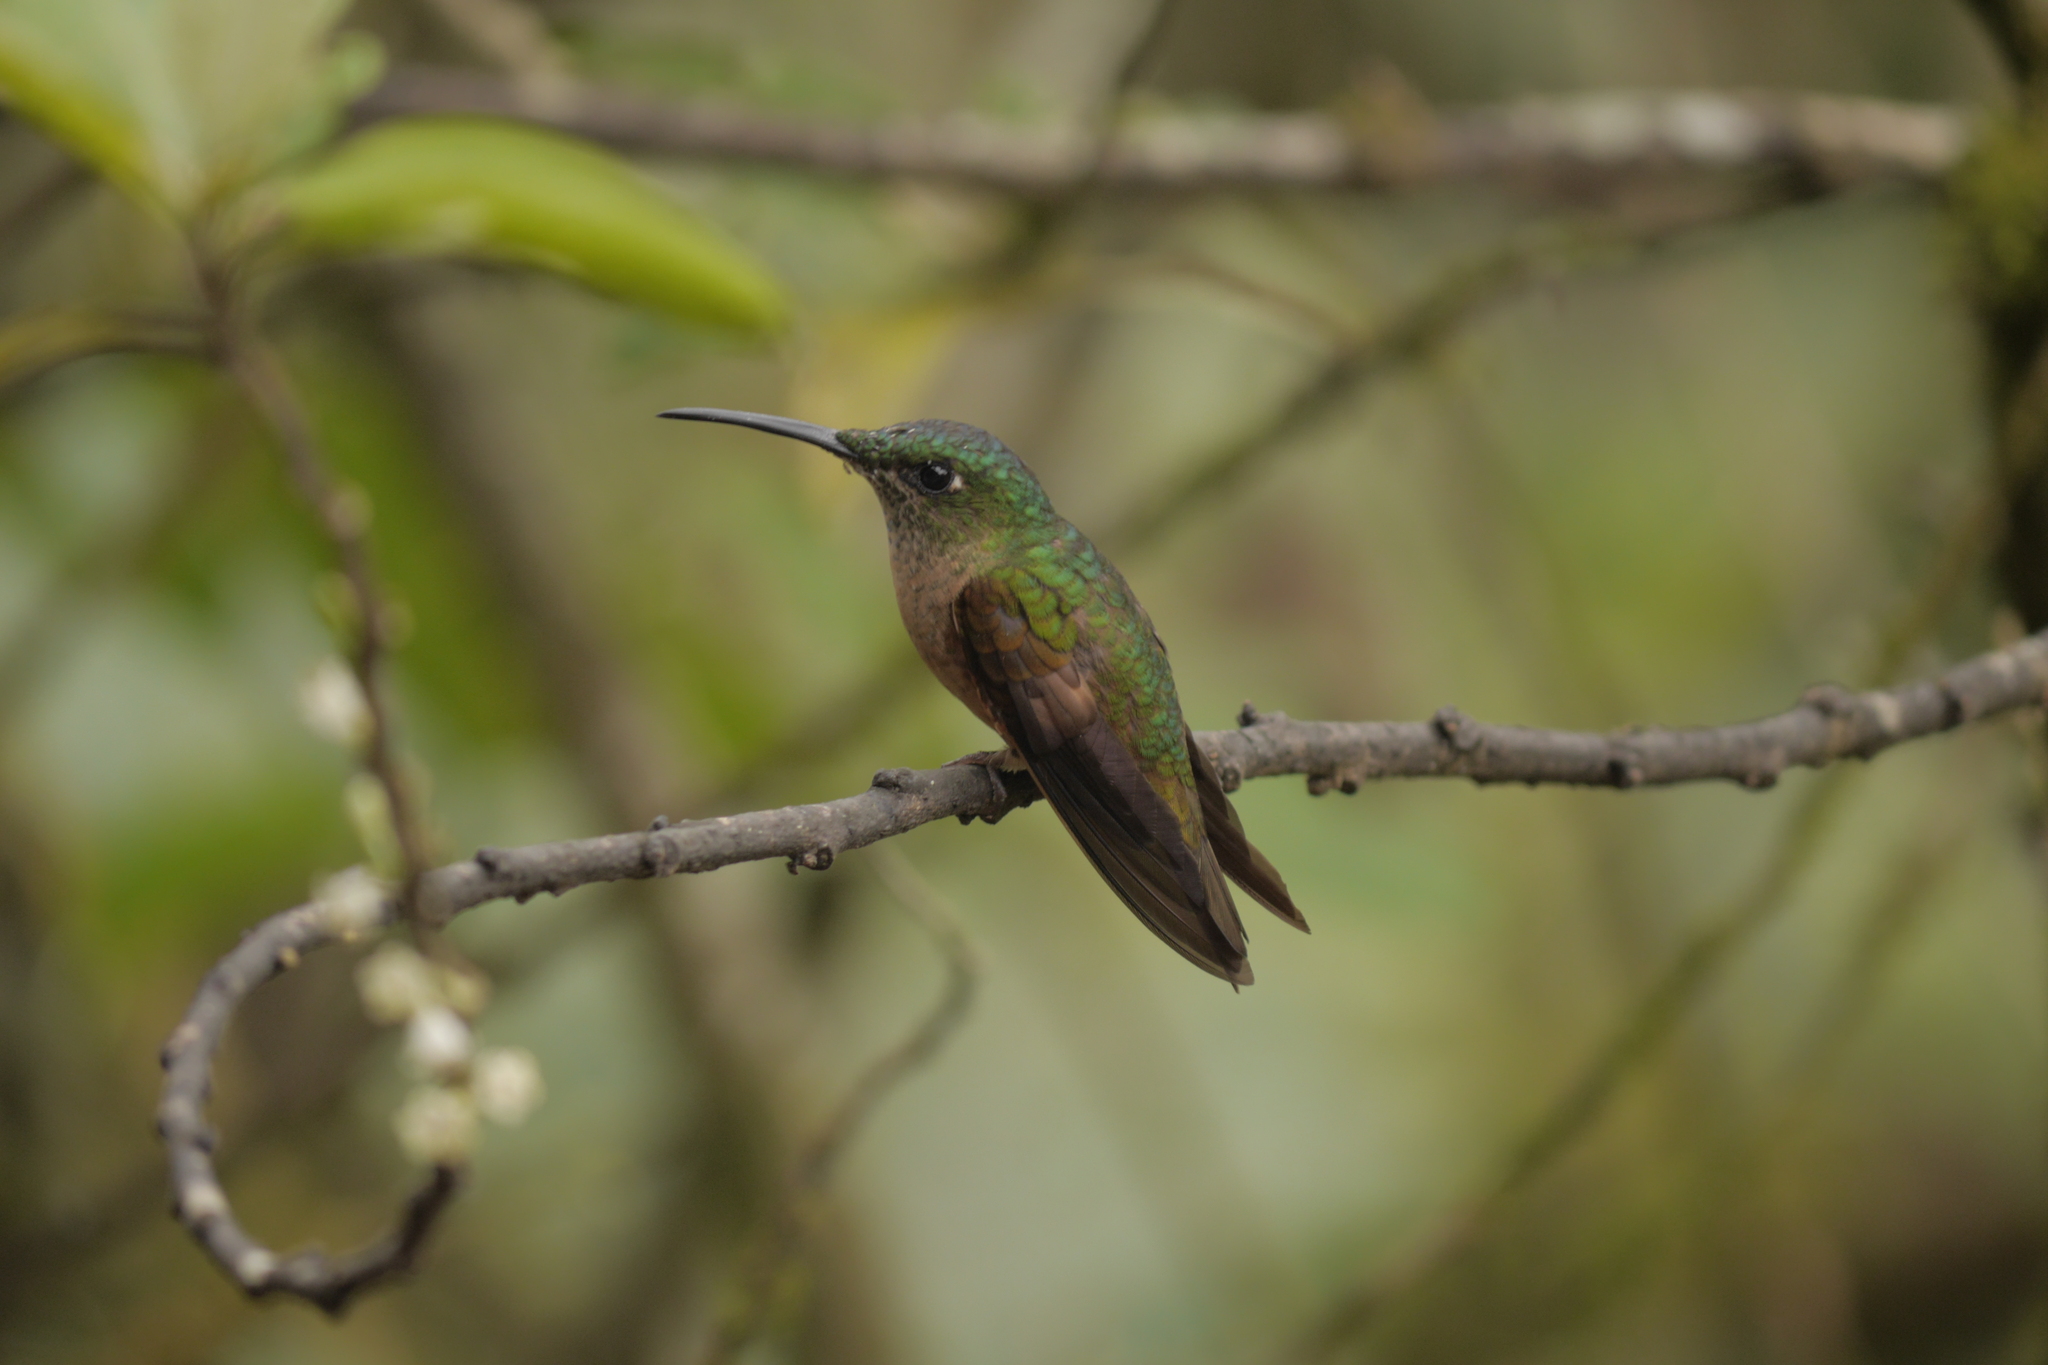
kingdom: Animalia
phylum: Chordata
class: Aves
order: Apodiformes
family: Trochilidae
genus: Heliodoxa
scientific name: Heliodoxa rubinoides
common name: Fawn-breasted brilliant
